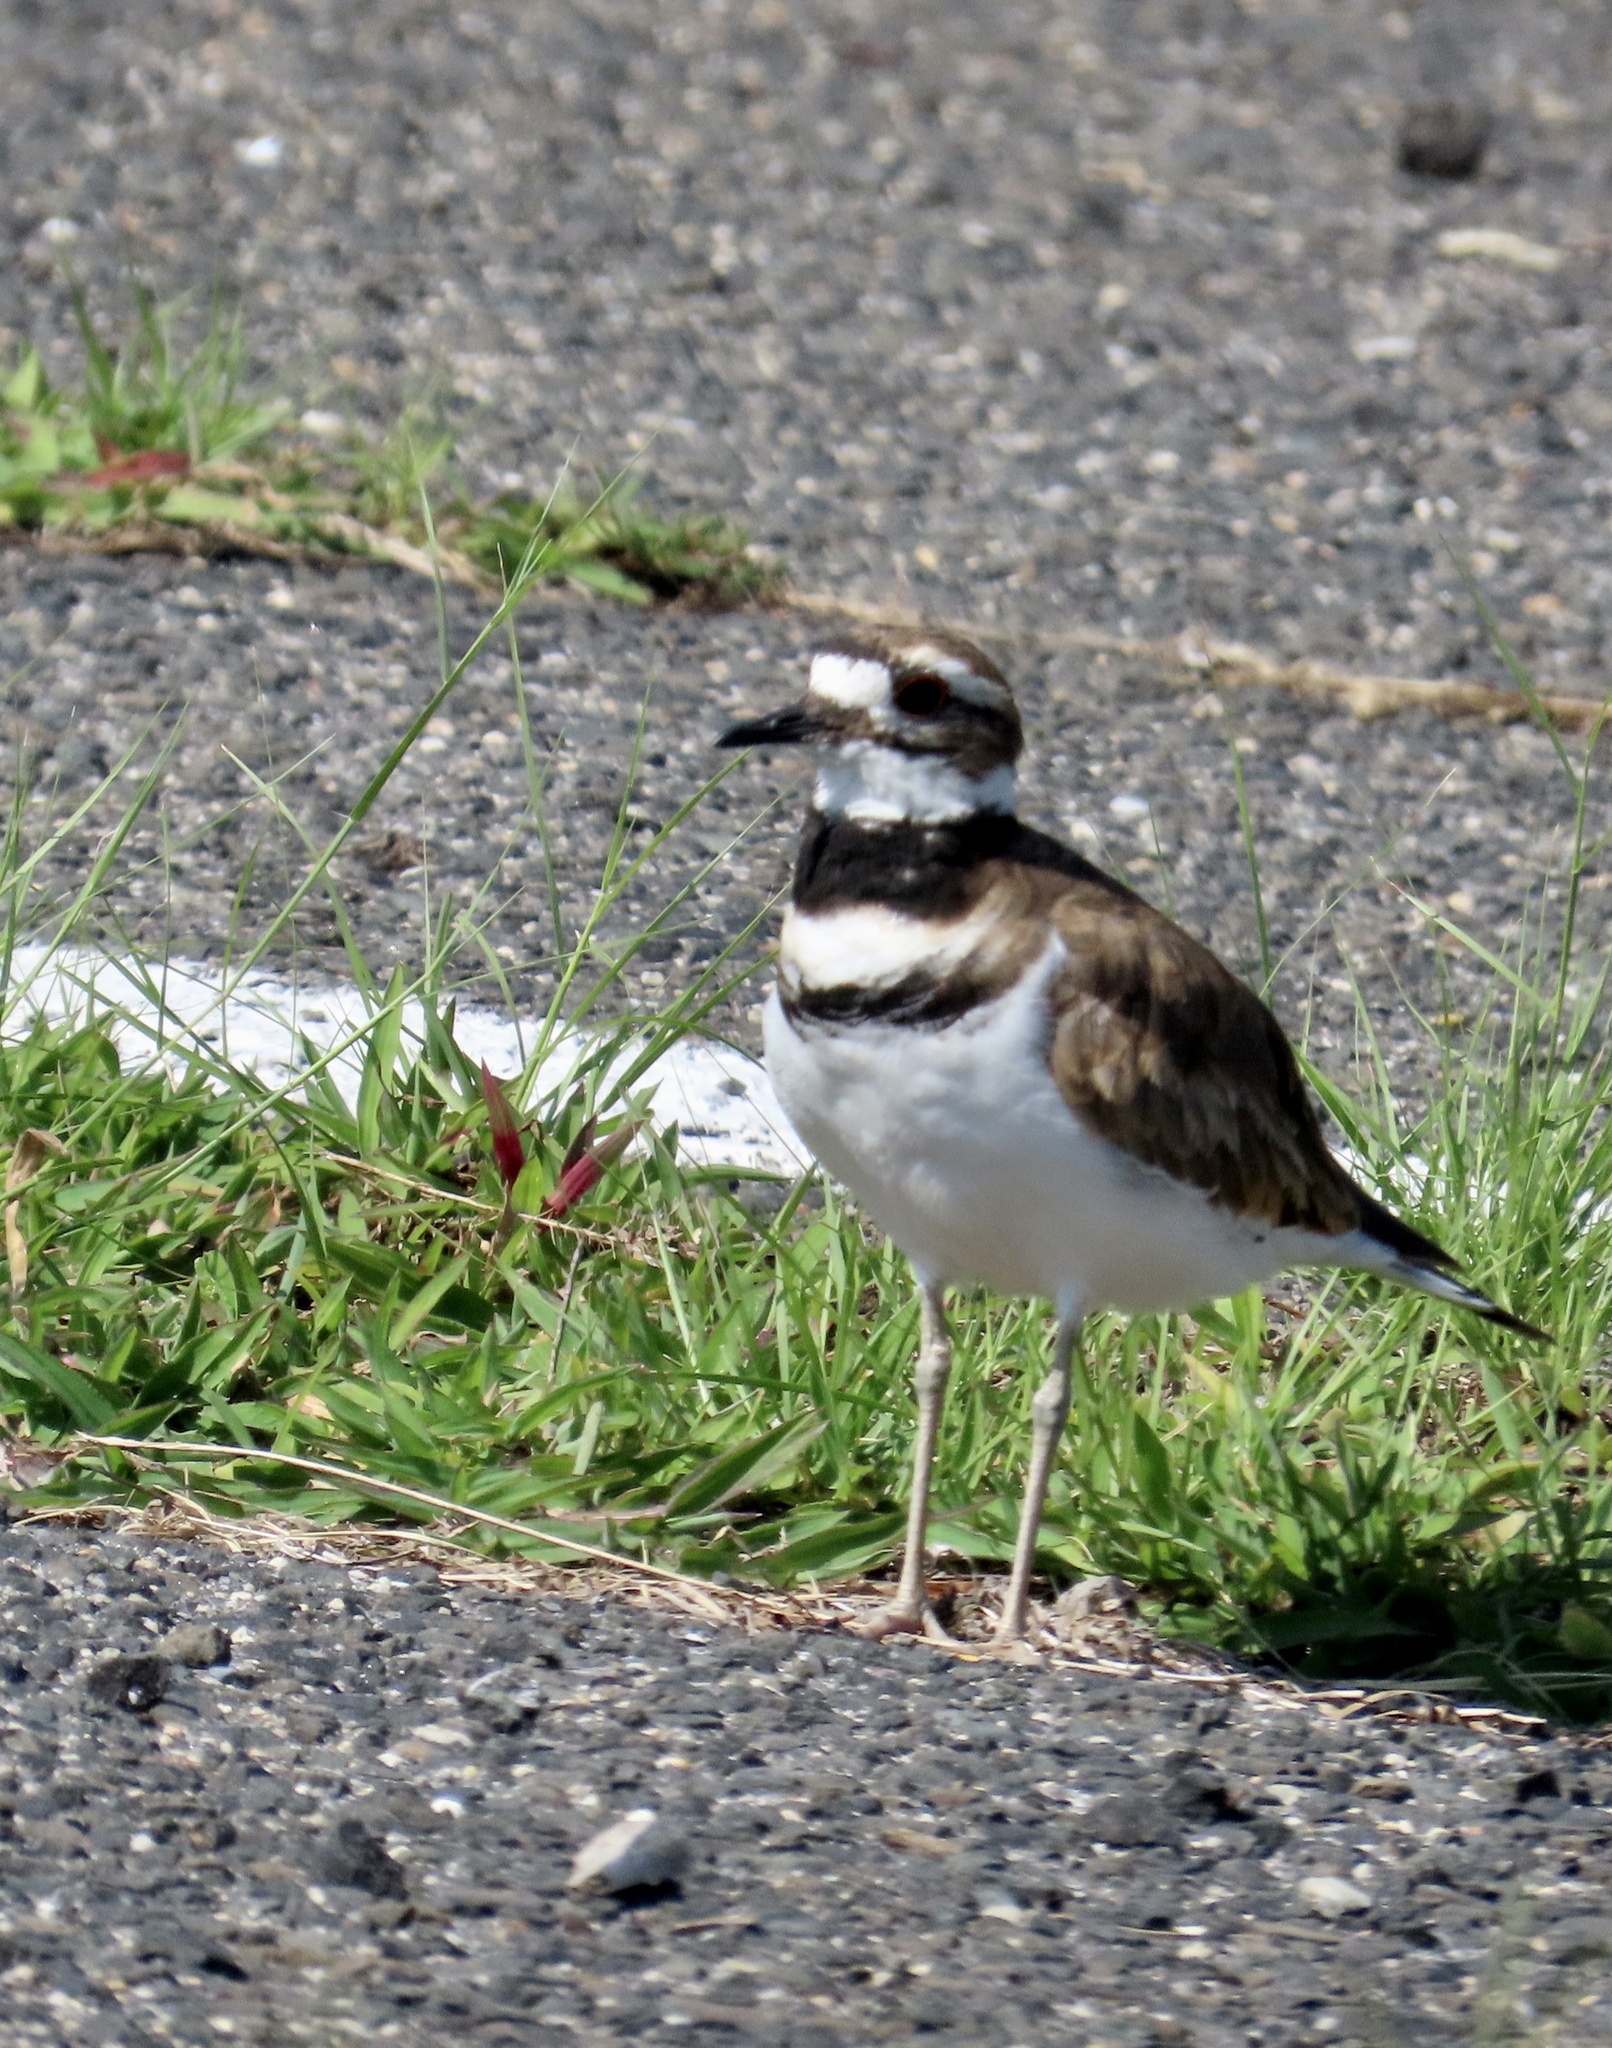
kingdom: Animalia
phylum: Chordata
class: Aves
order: Charadriiformes
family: Charadriidae
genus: Charadrius
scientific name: Charadrius vociferus
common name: Killdeer
